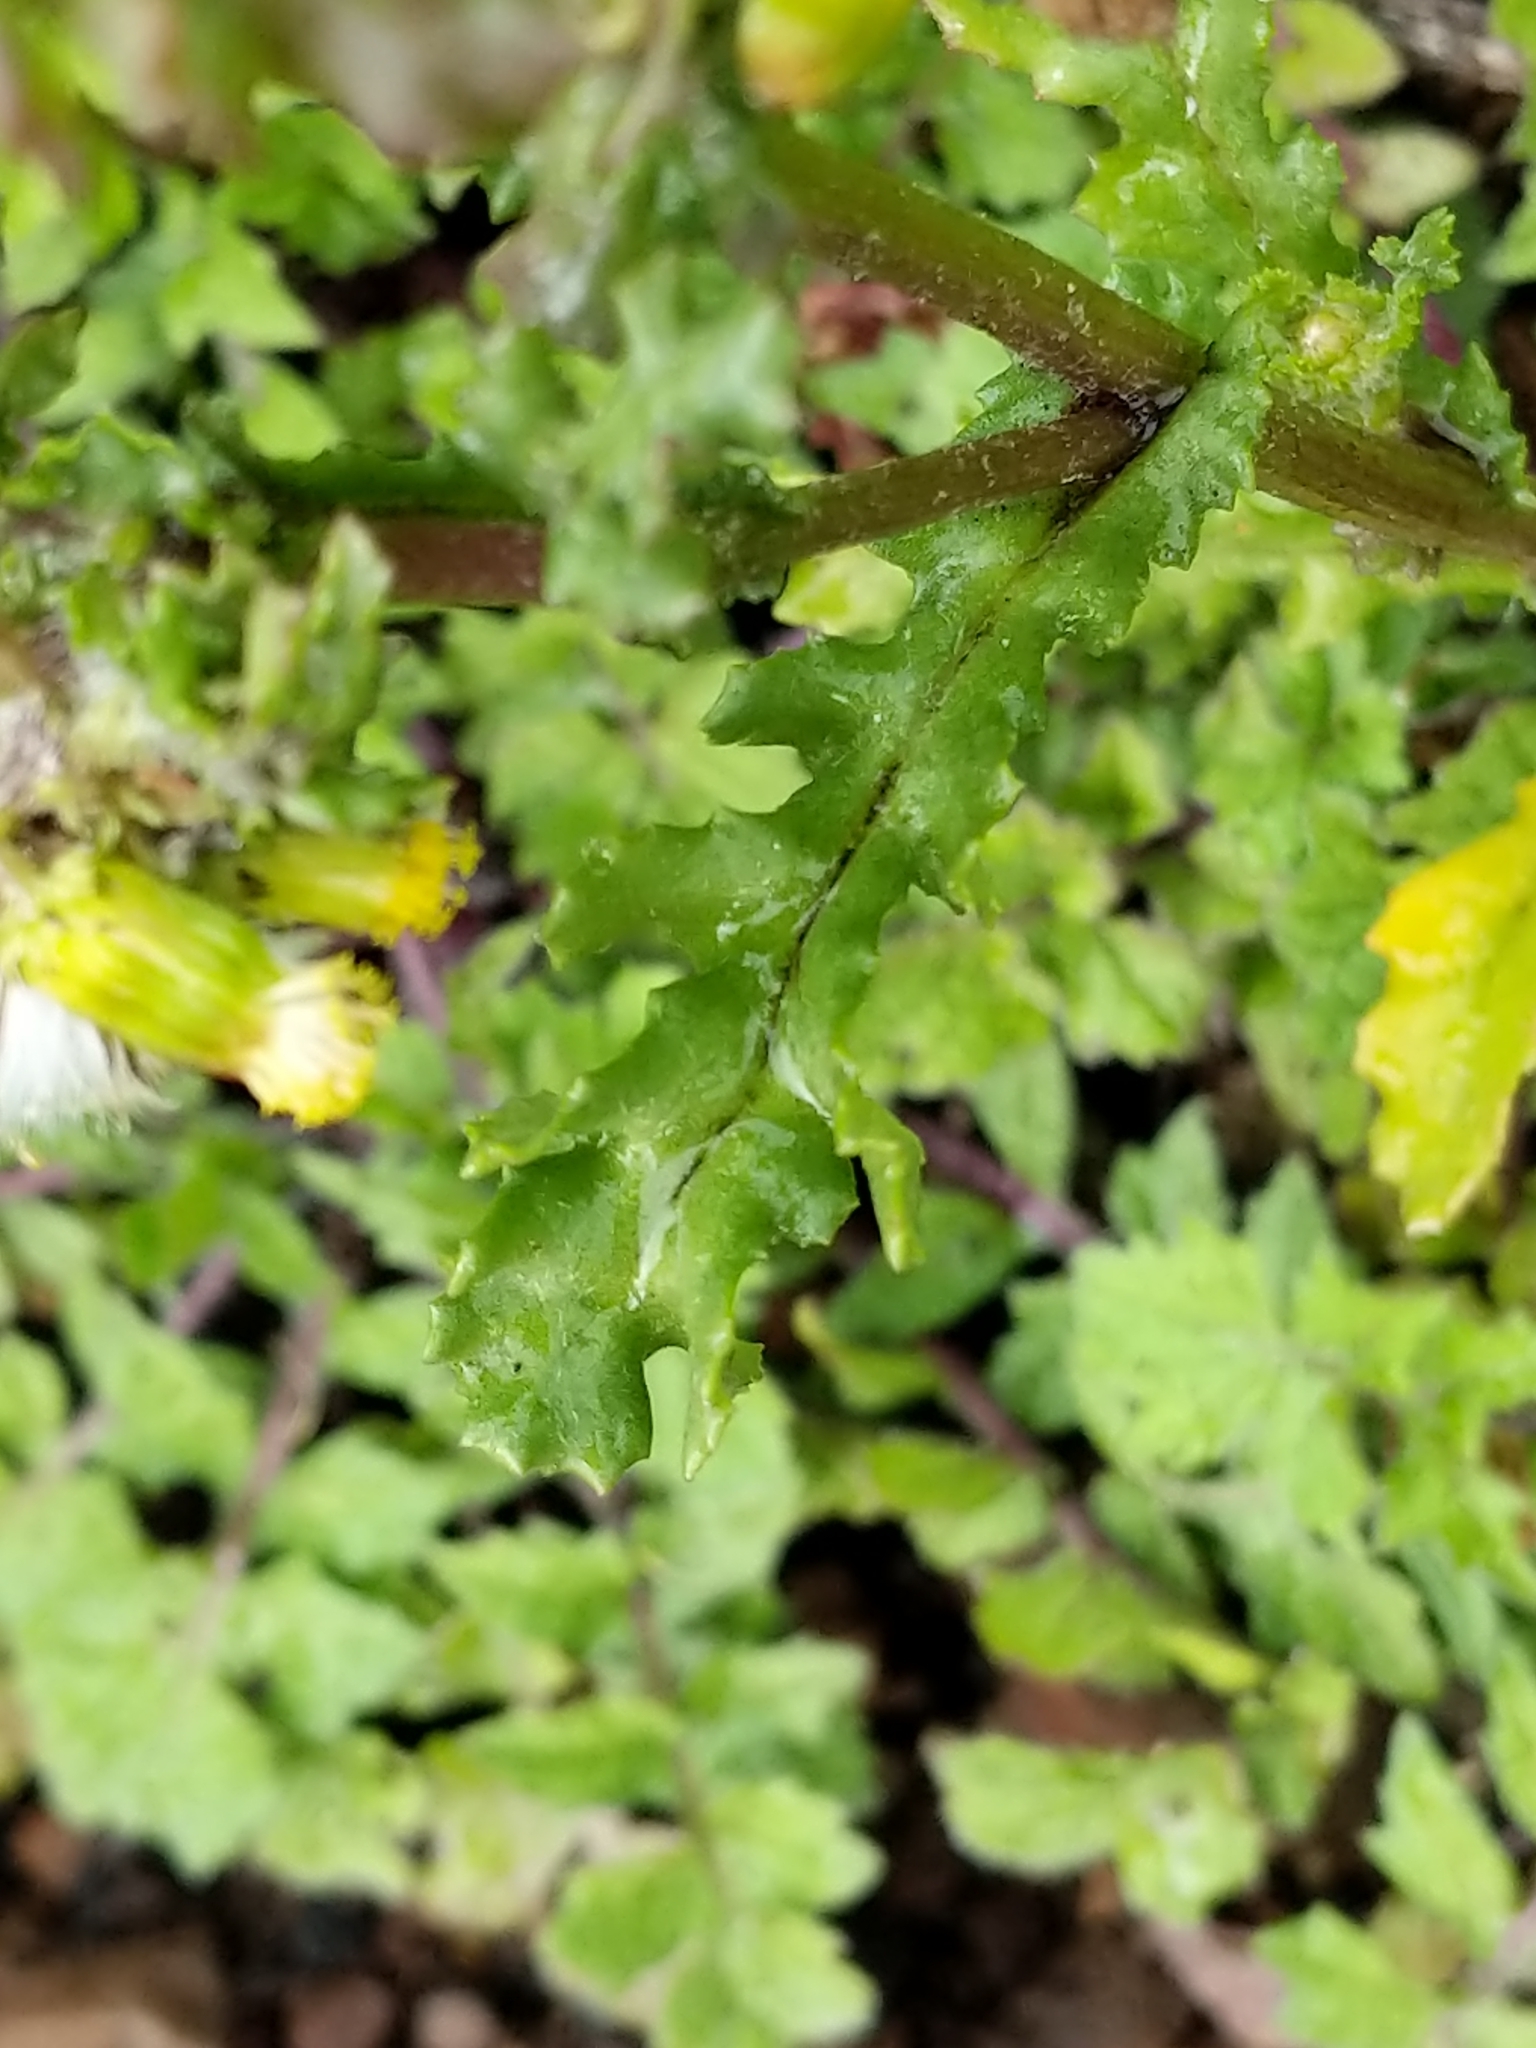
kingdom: Plantae
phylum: Tracheophyta
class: Magnoliopsida
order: Asterales
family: Asteraceae
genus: Senecio
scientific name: Senecio vulgaris
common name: Old-man-in-the-spring
